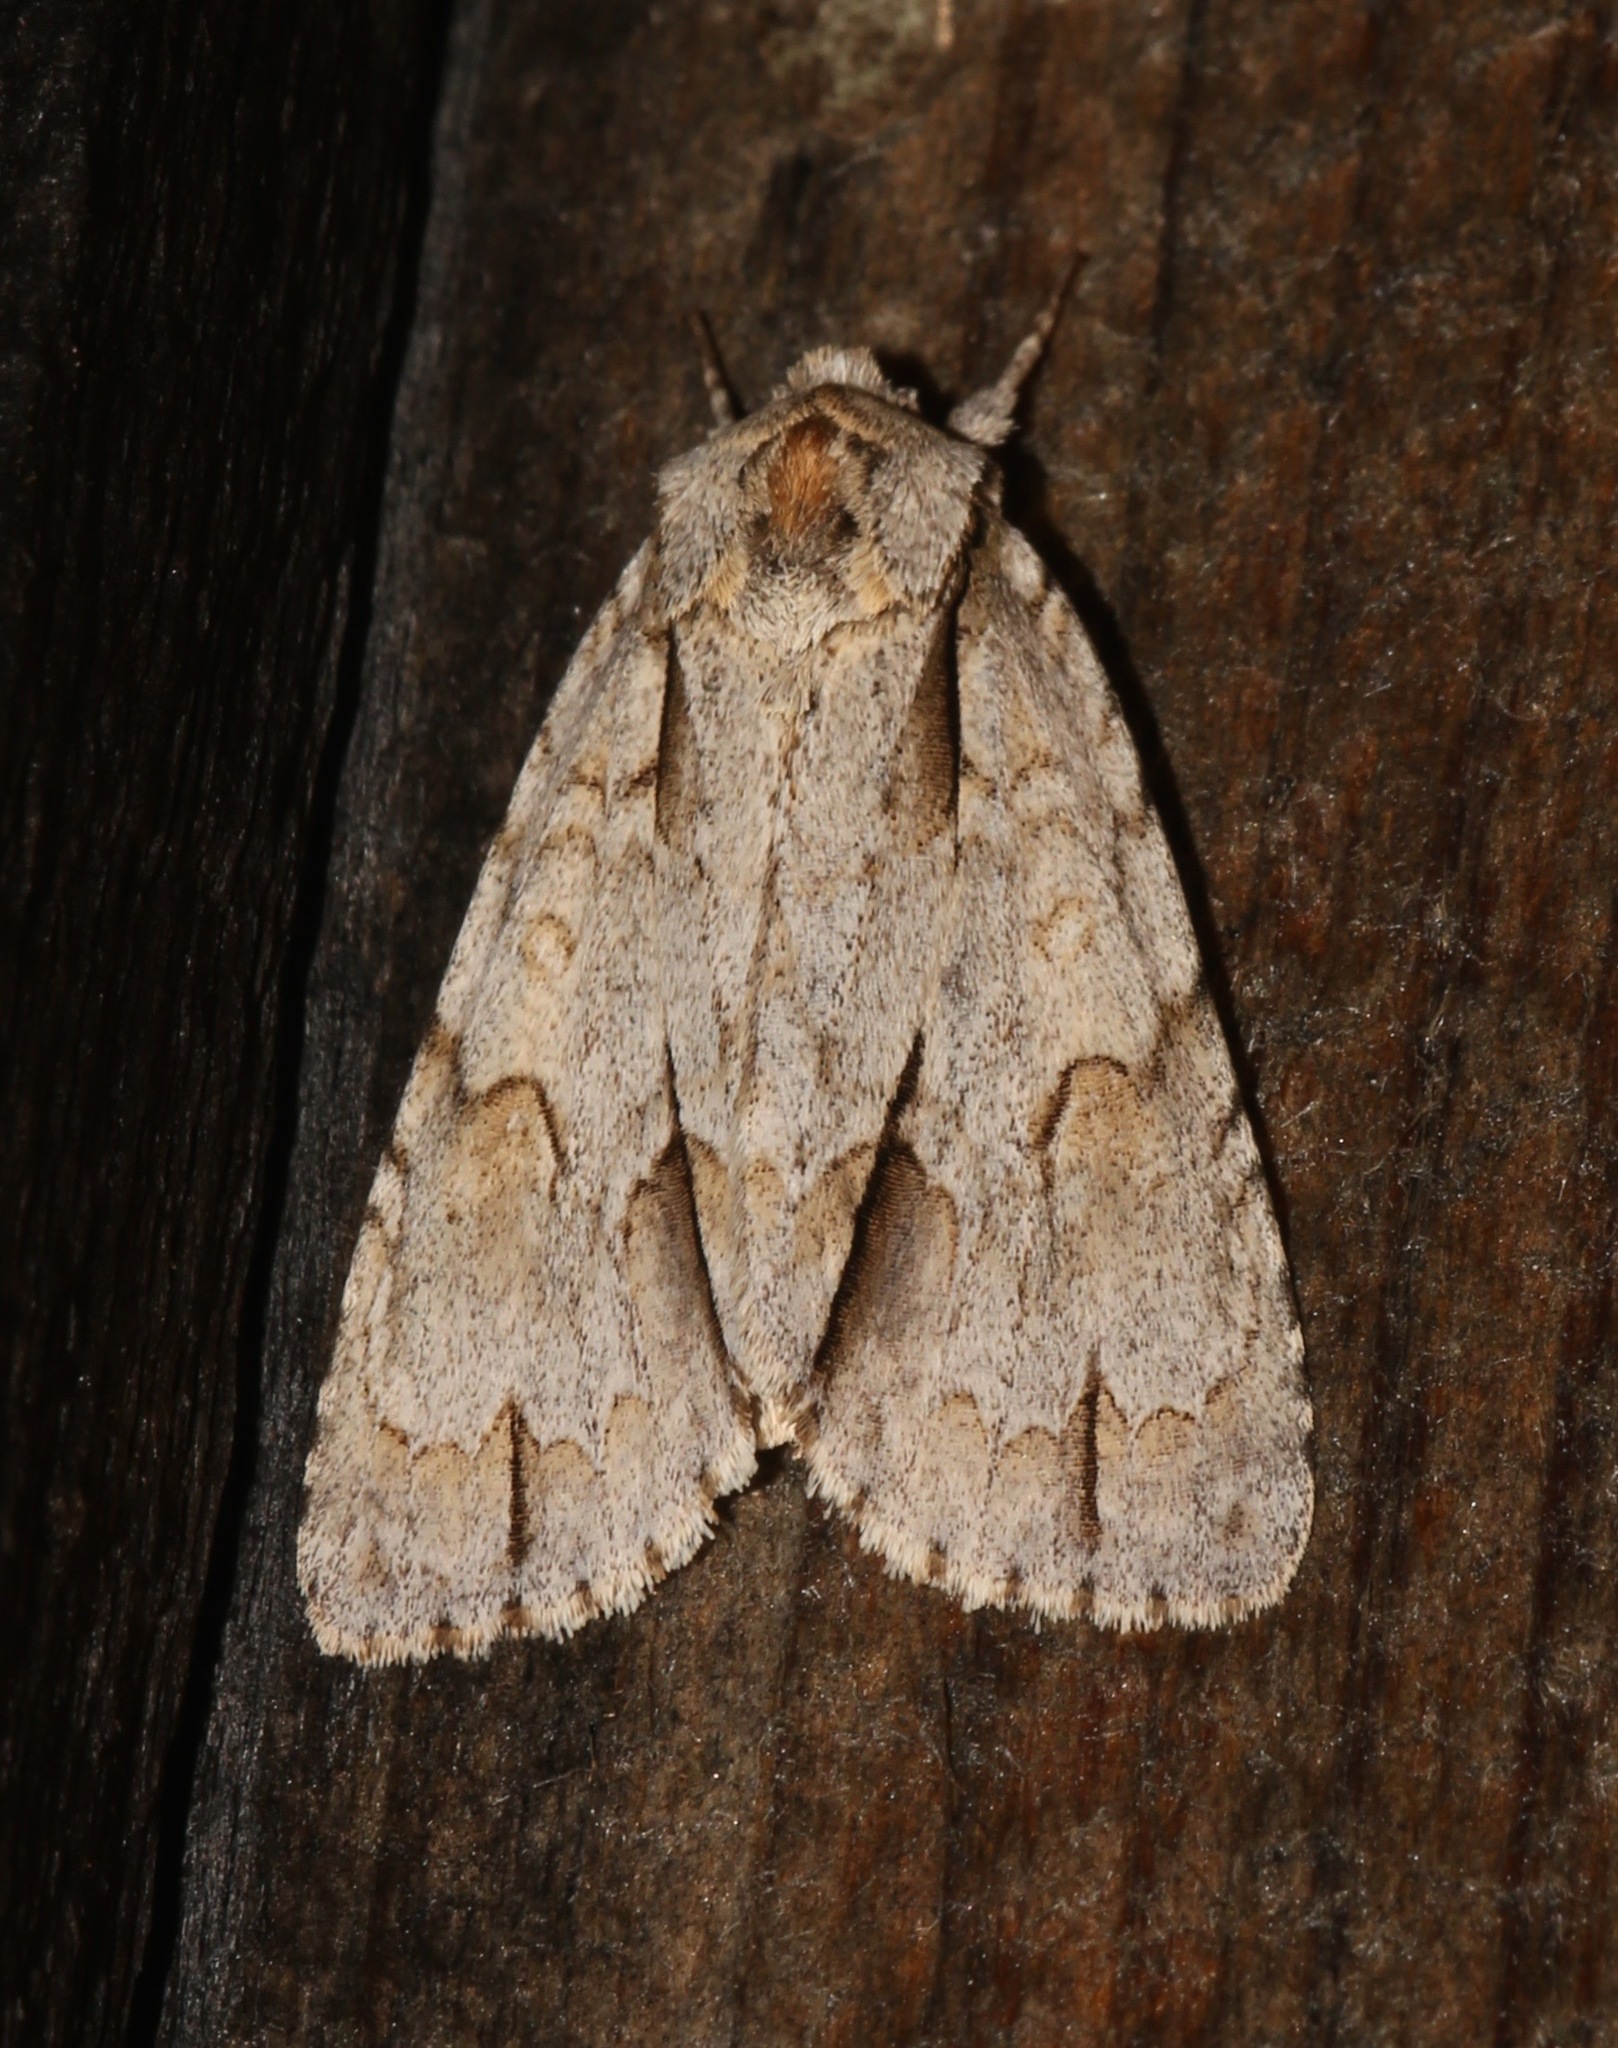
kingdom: Animalia
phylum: Arthropoda
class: Insecta
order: Lepidoptera
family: Noctuidae
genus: Acronicta
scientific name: Acronicta morula
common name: Ochre dagger
